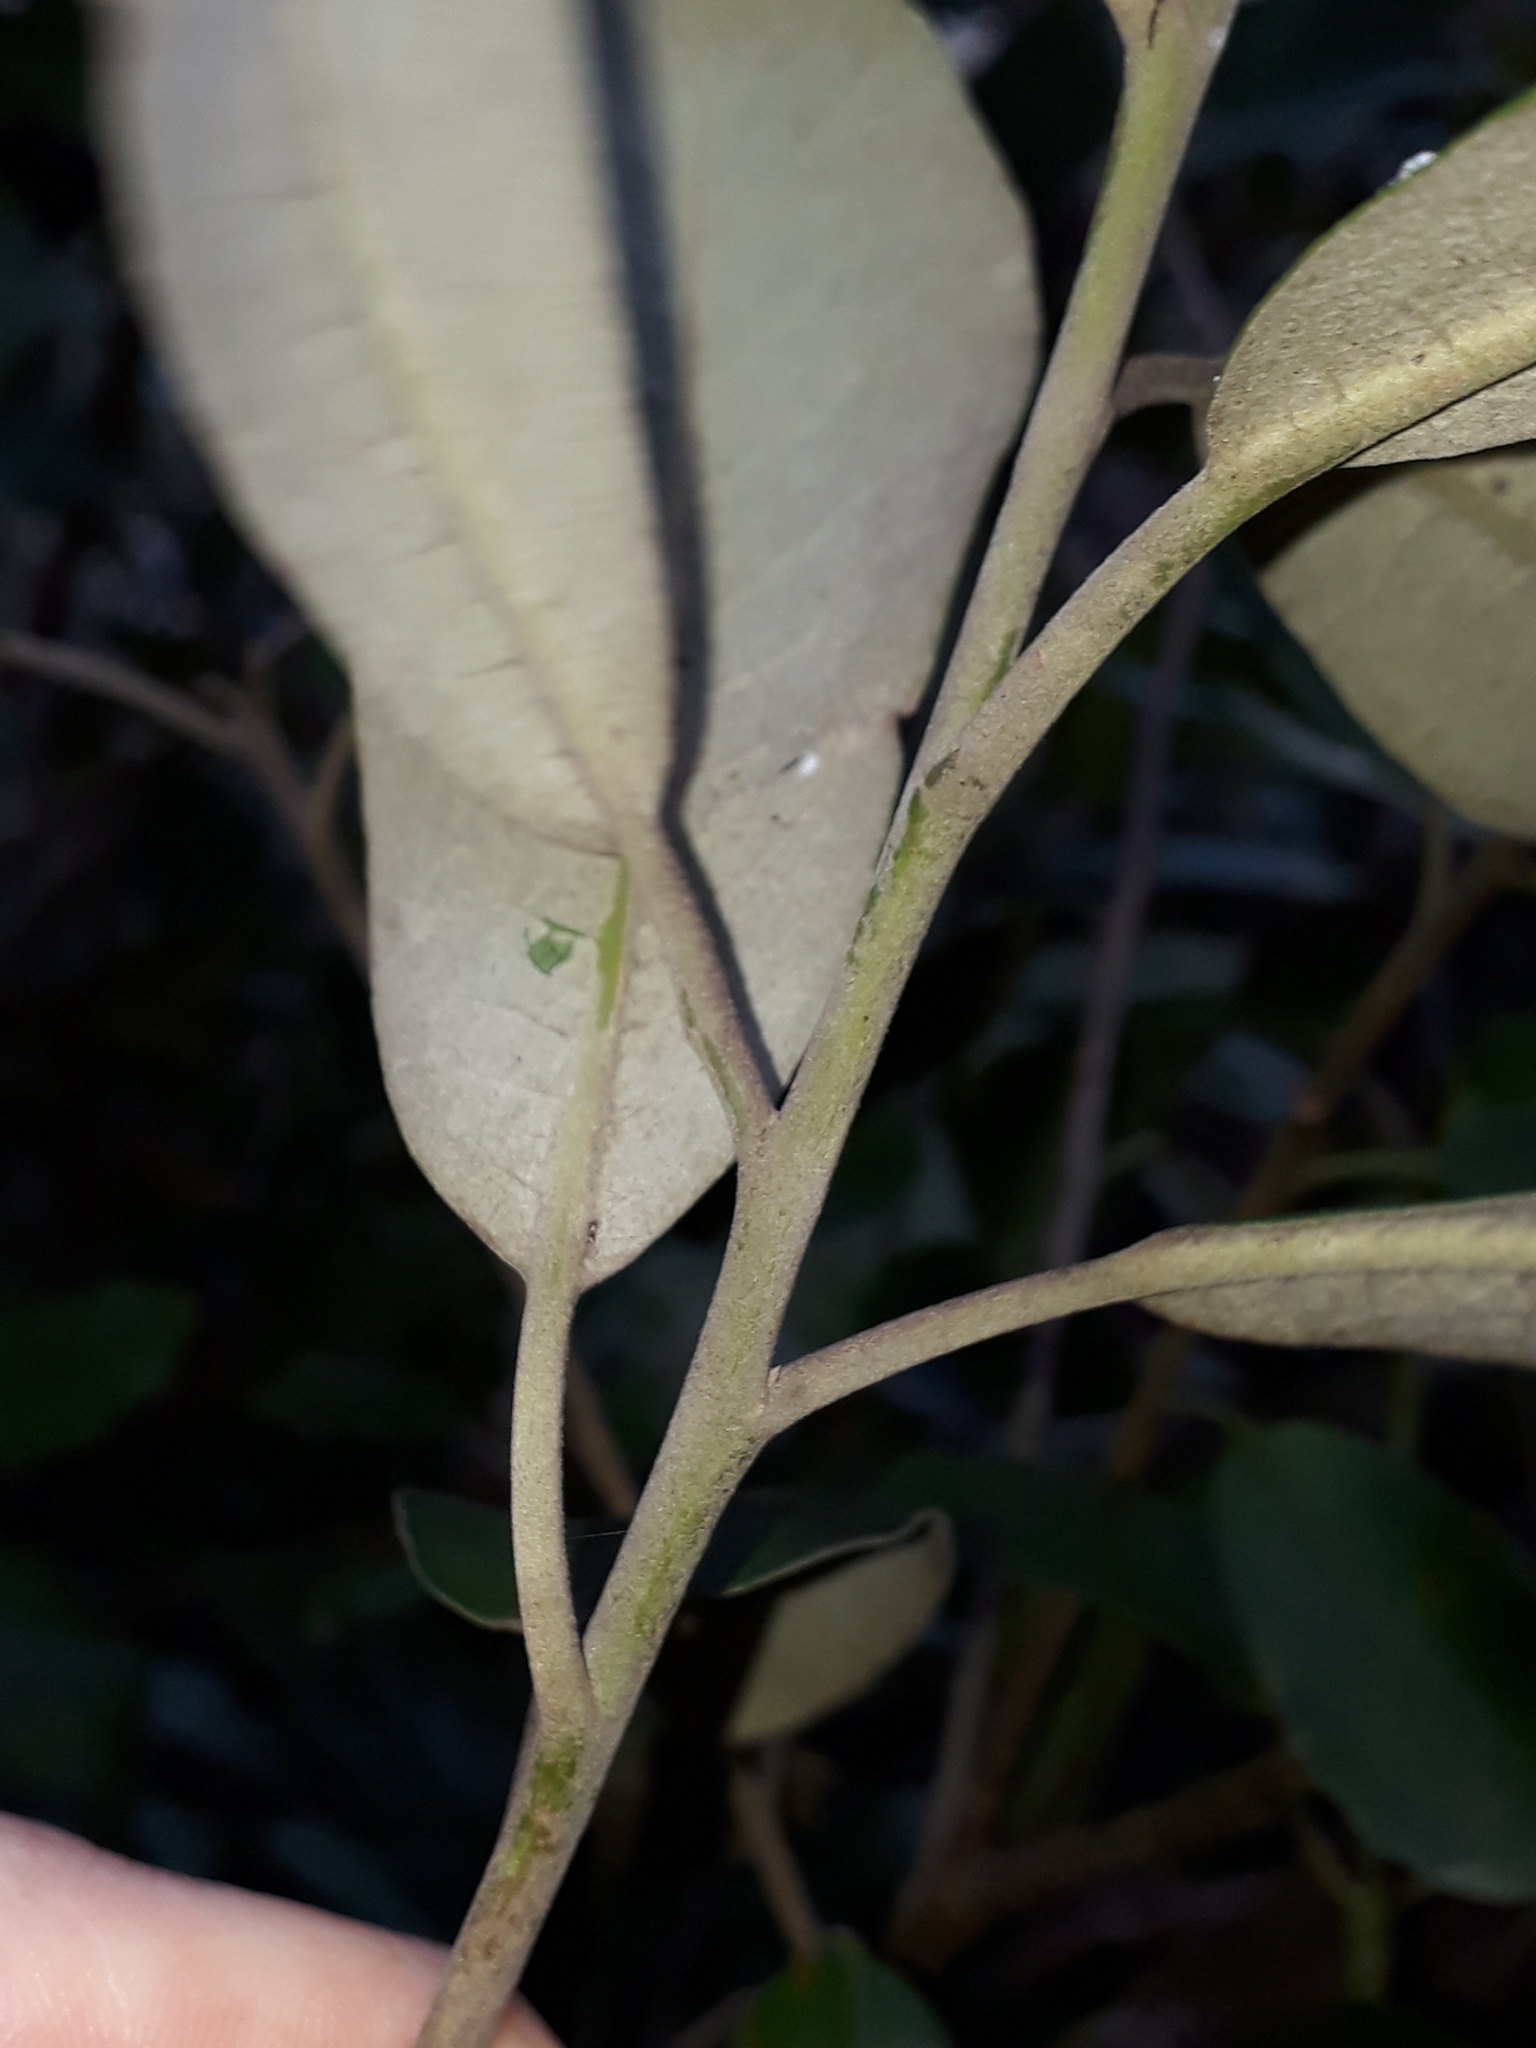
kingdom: Plantae
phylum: Tracheophyta
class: Magnoliopsida
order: Apiales
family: Pittosporaceae
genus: Pittosporum
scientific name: Pittosporum ralphii
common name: Ralph's desertwillow
